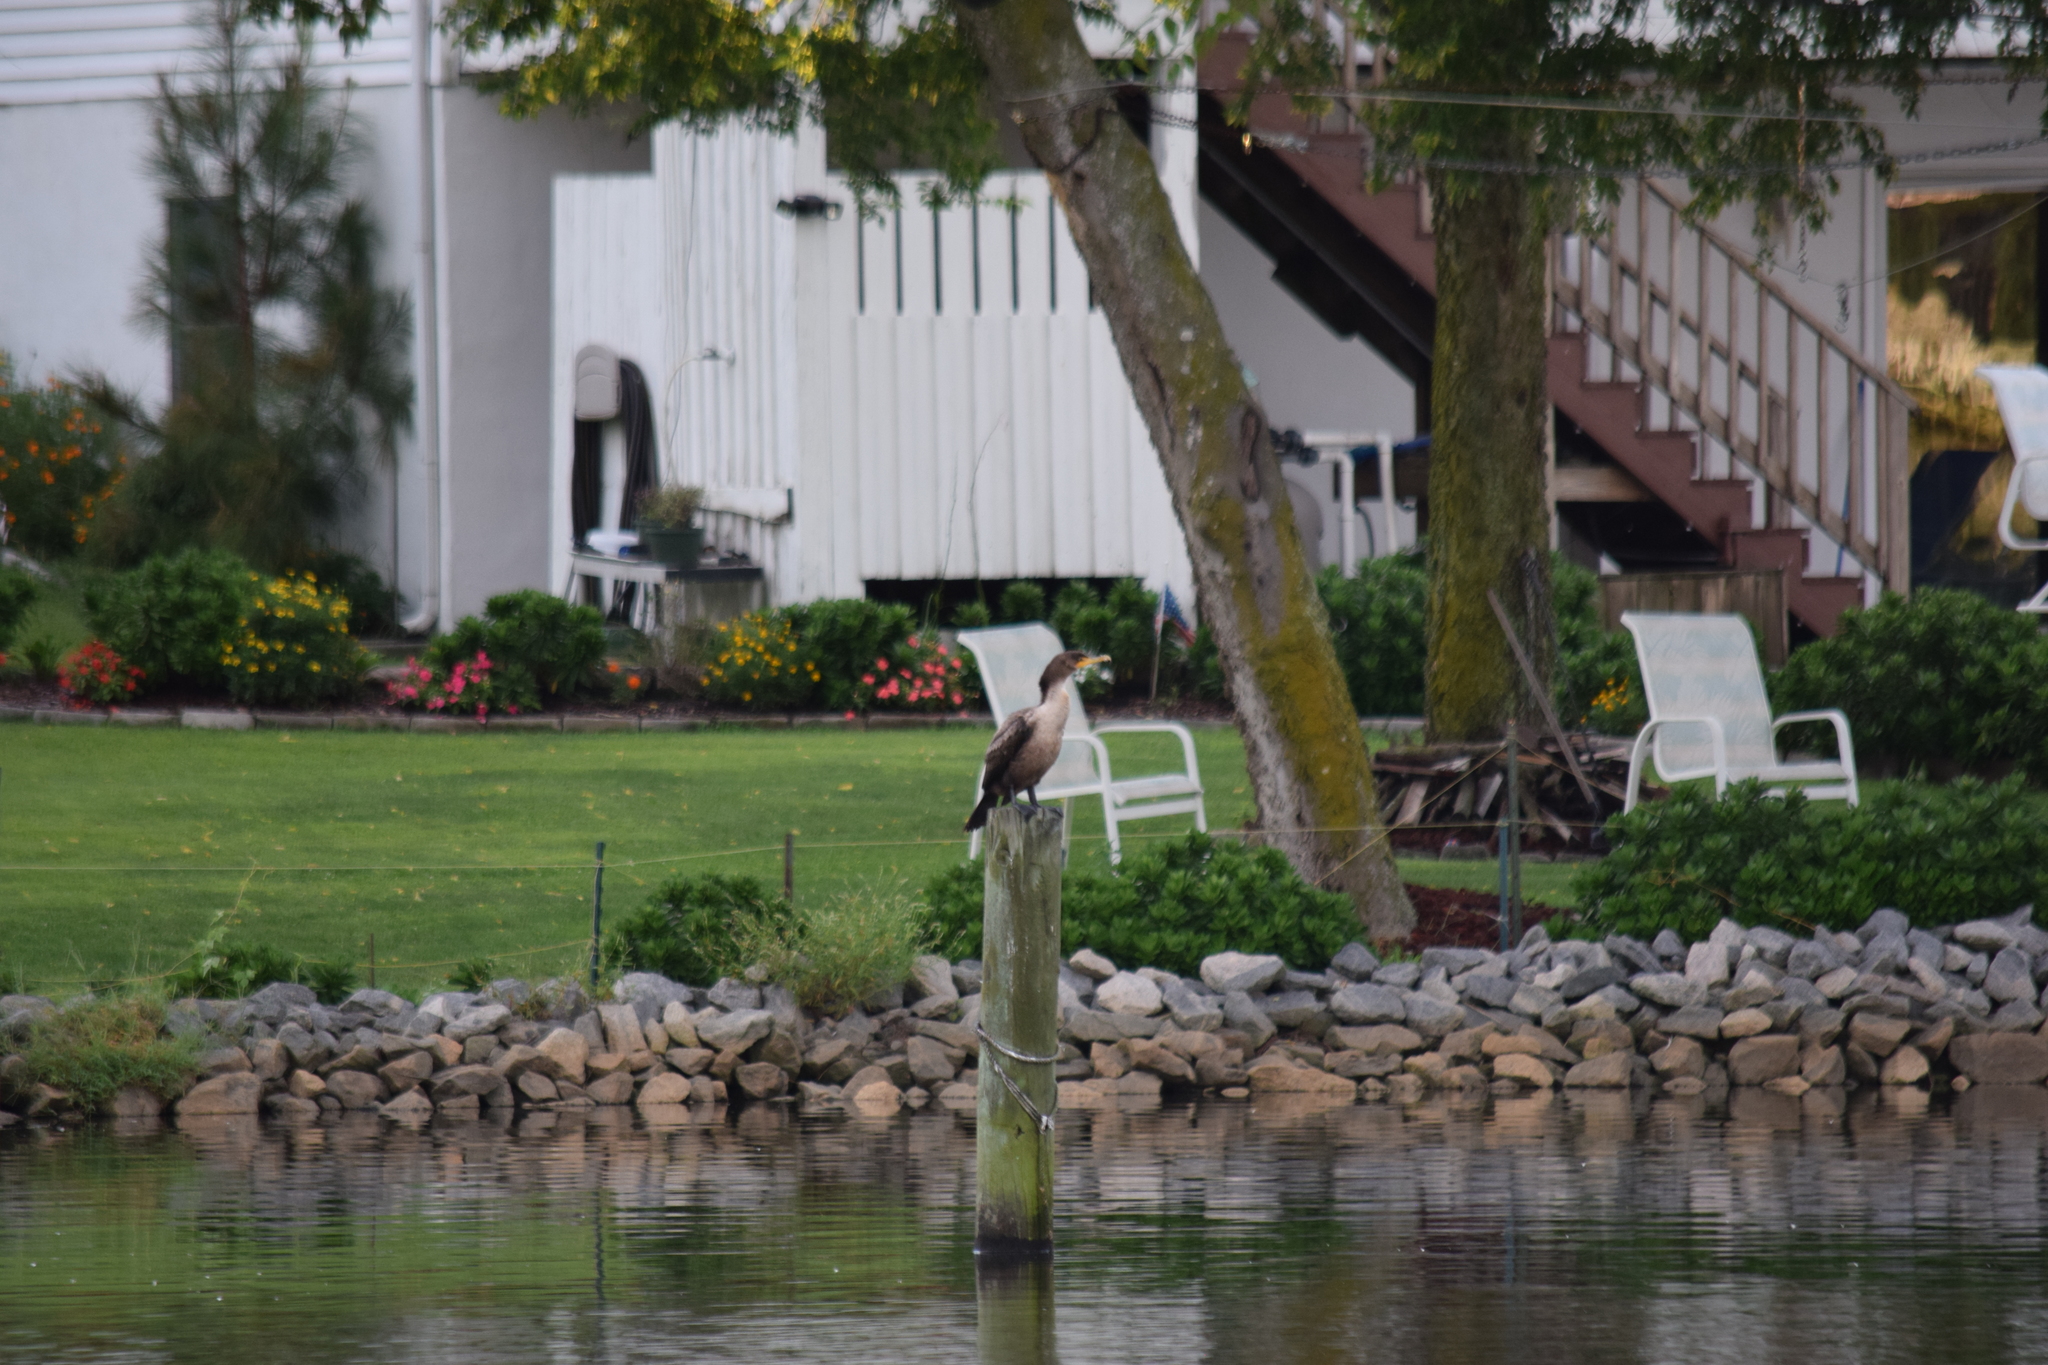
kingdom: Animalia
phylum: Chordata
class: Aves
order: Suliformes
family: Phalacrocoracidae
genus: Phalacrocorax
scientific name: Phalacrocorax auritus
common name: Double-crested cormorant
